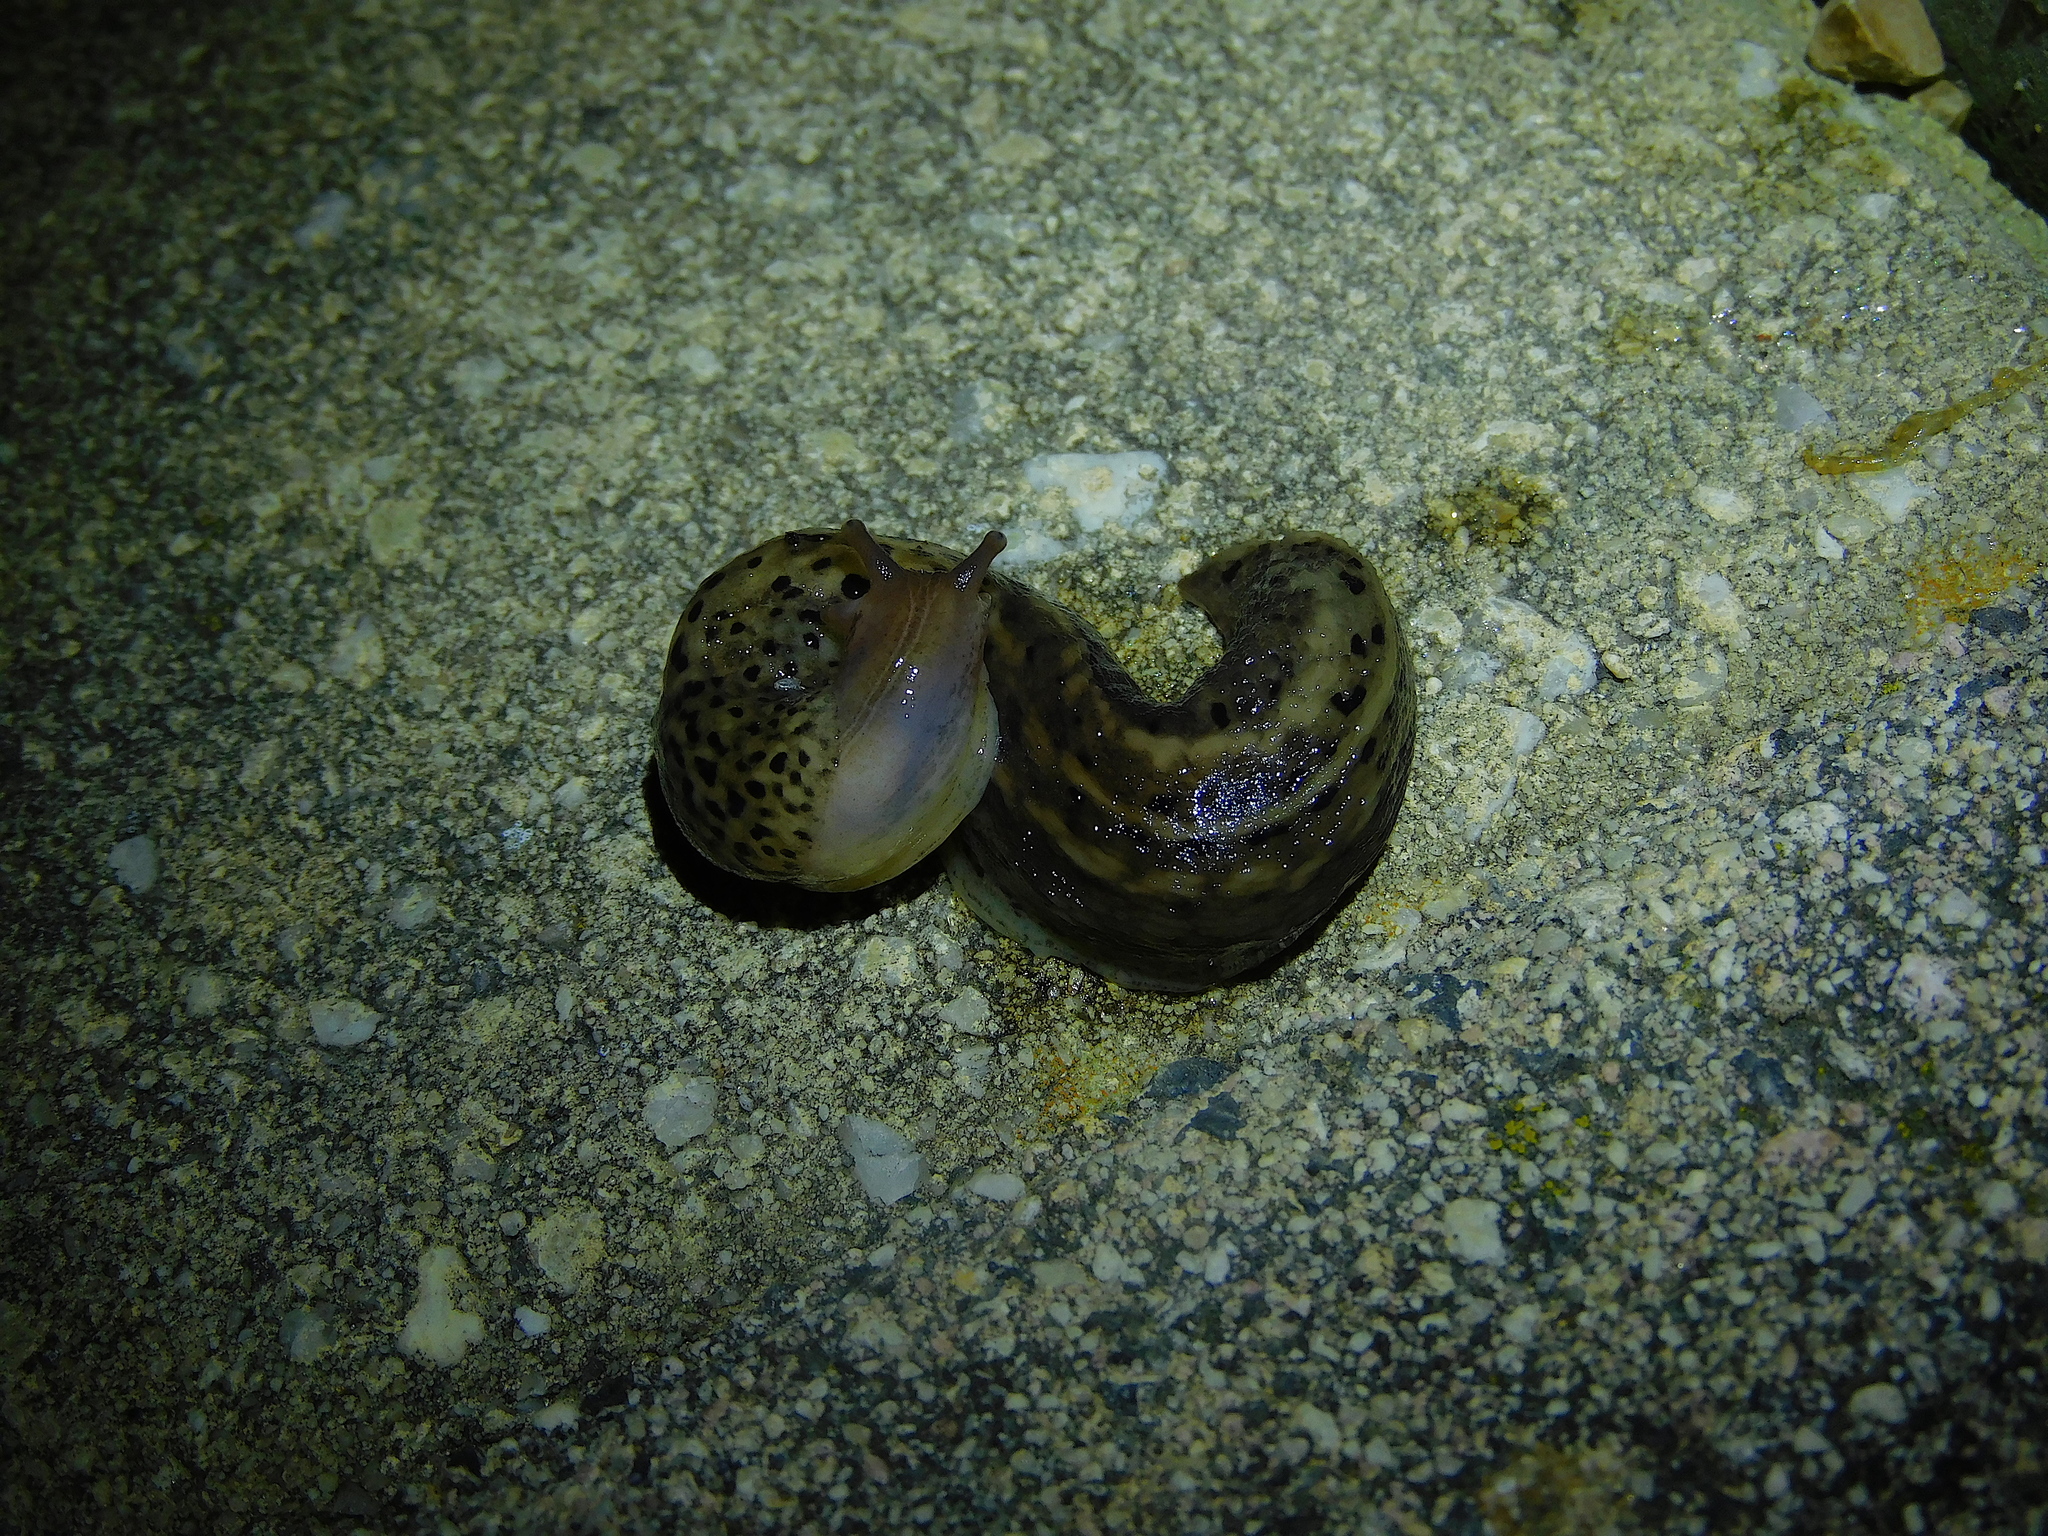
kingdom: Animalia
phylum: Mollusca
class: Gastropoda
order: Stylommatophora
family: Limacidae
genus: Limax
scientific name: Limax maximus
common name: Great grey slug
